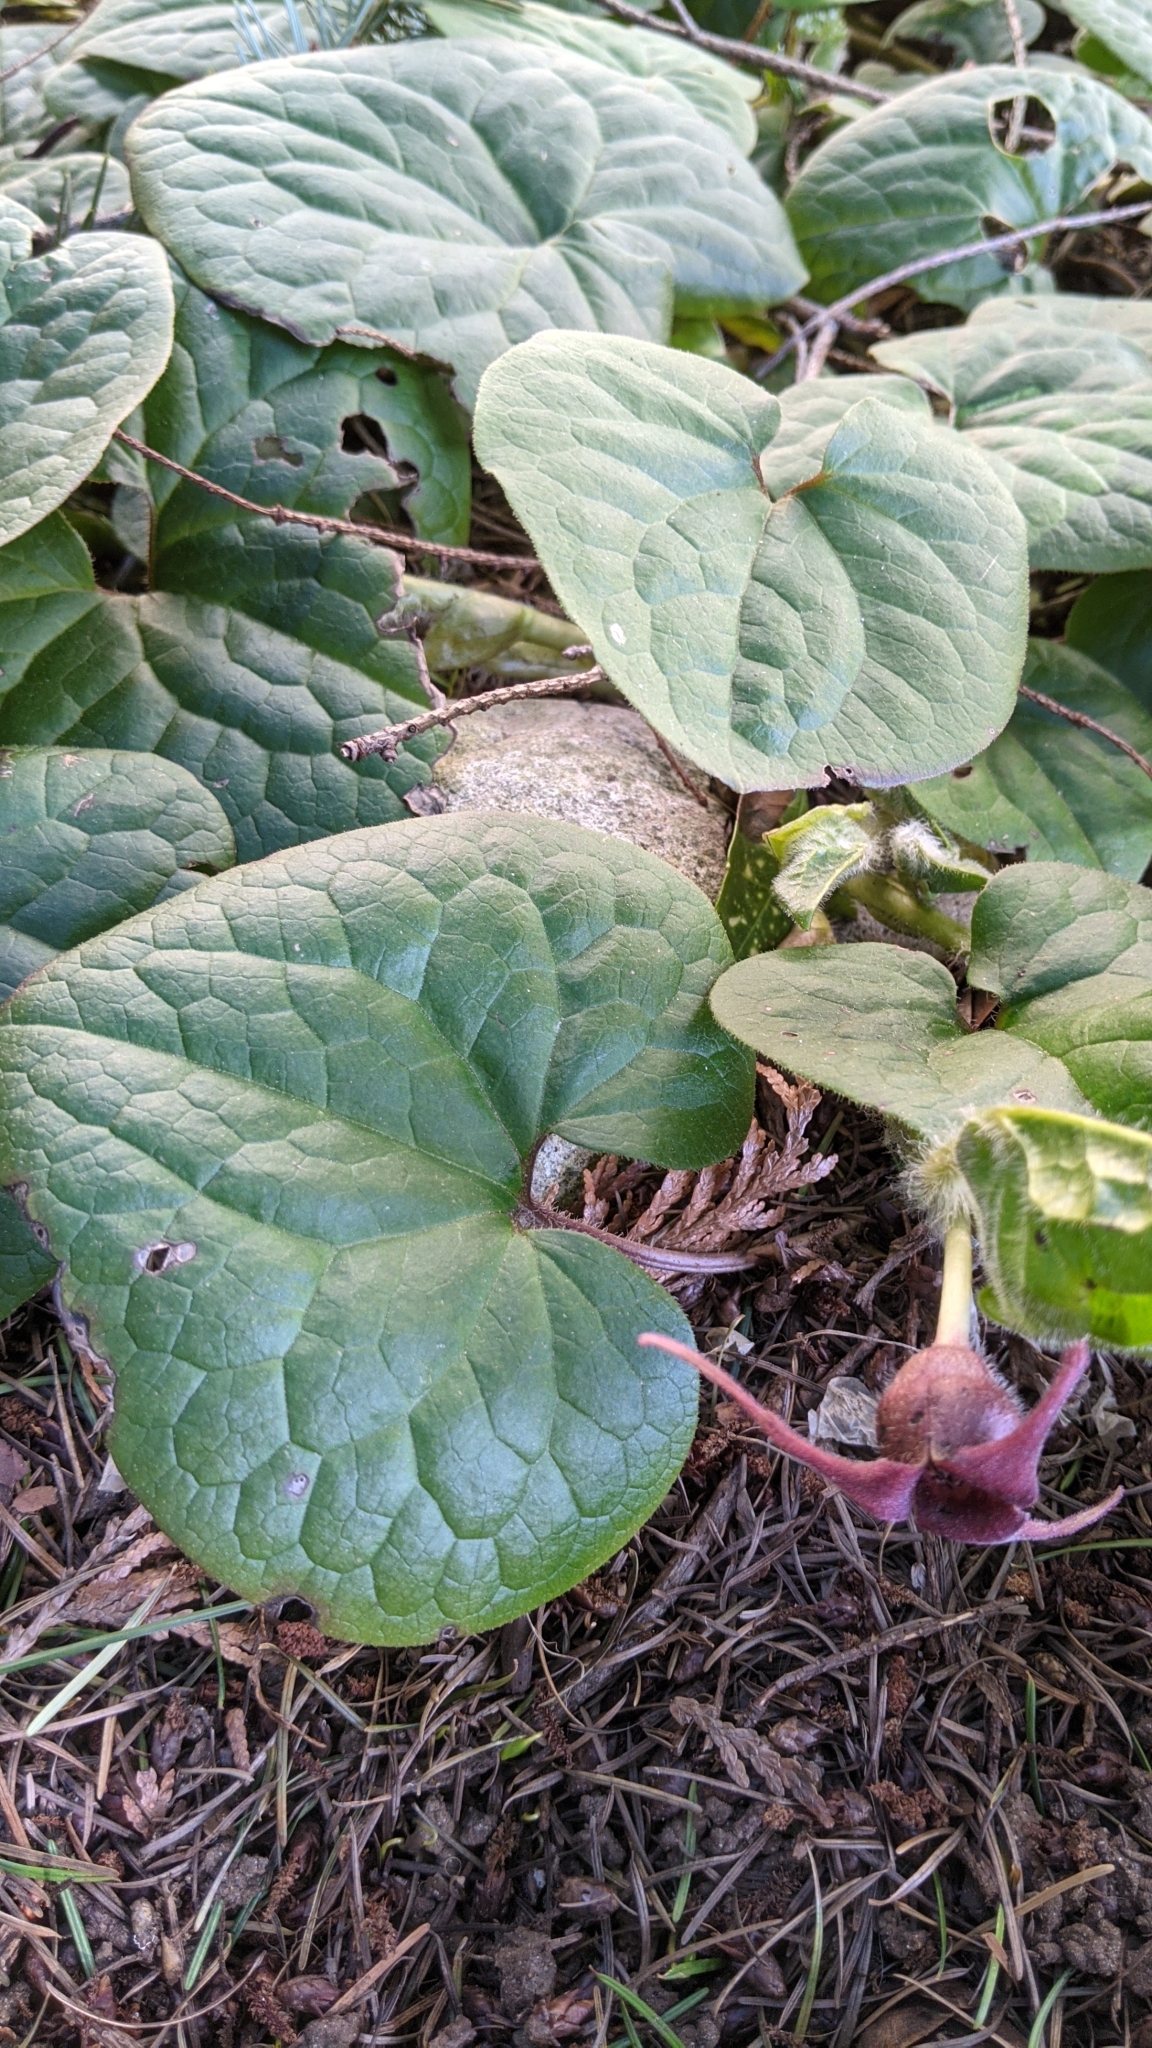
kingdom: Plantae
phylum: Tracheophyta
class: Magnoliopsida
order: Piperales
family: Aristolochiaceae
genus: Asarum
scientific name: Asarum caudatum
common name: Wild ginger
